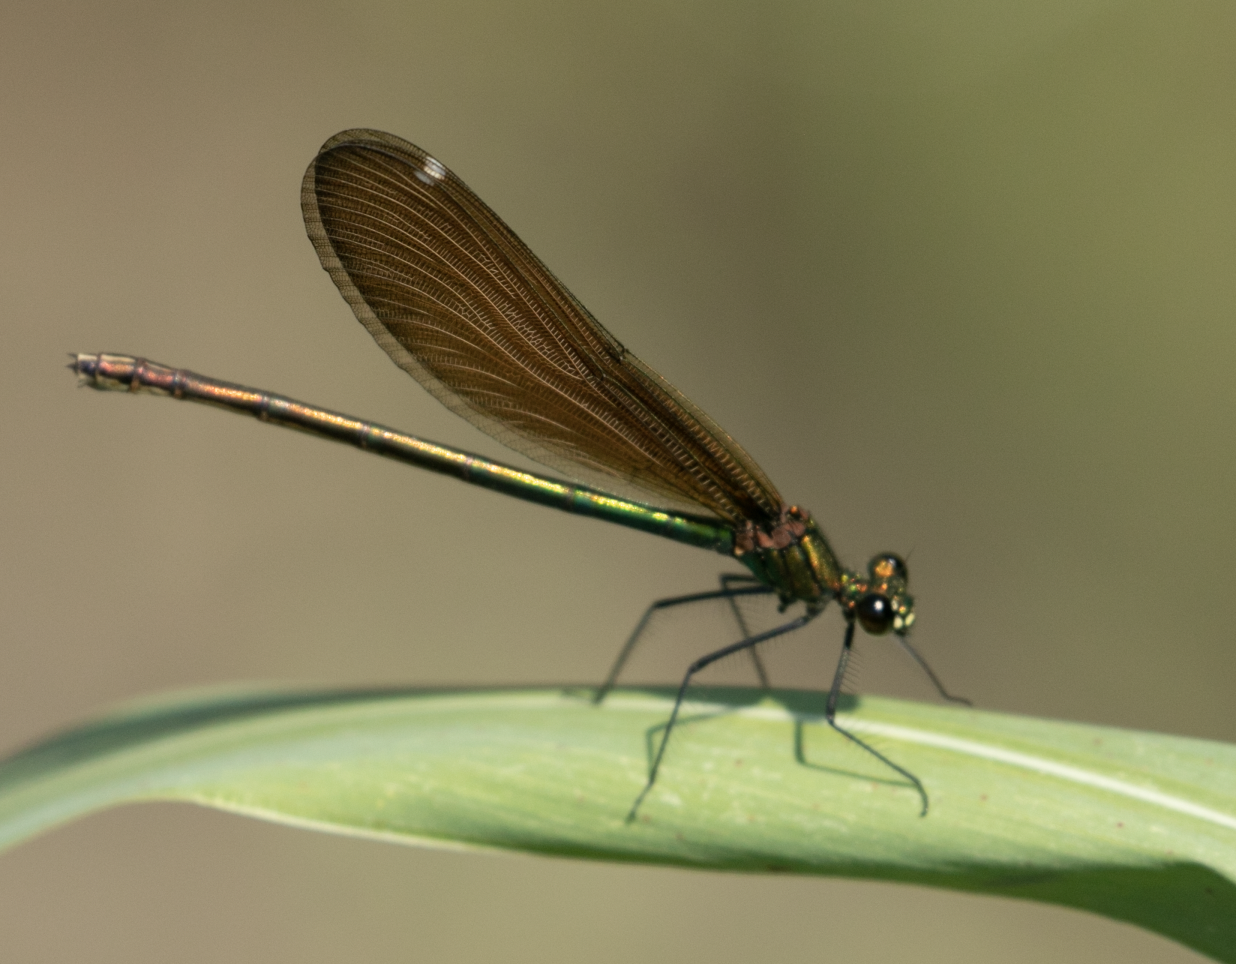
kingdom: Animalia
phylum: Arthropoda
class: Insecta
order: Odonata
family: Calopterygidae
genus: Calopteryx
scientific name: Calopteryx virgo
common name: Beautiful demoiselle
